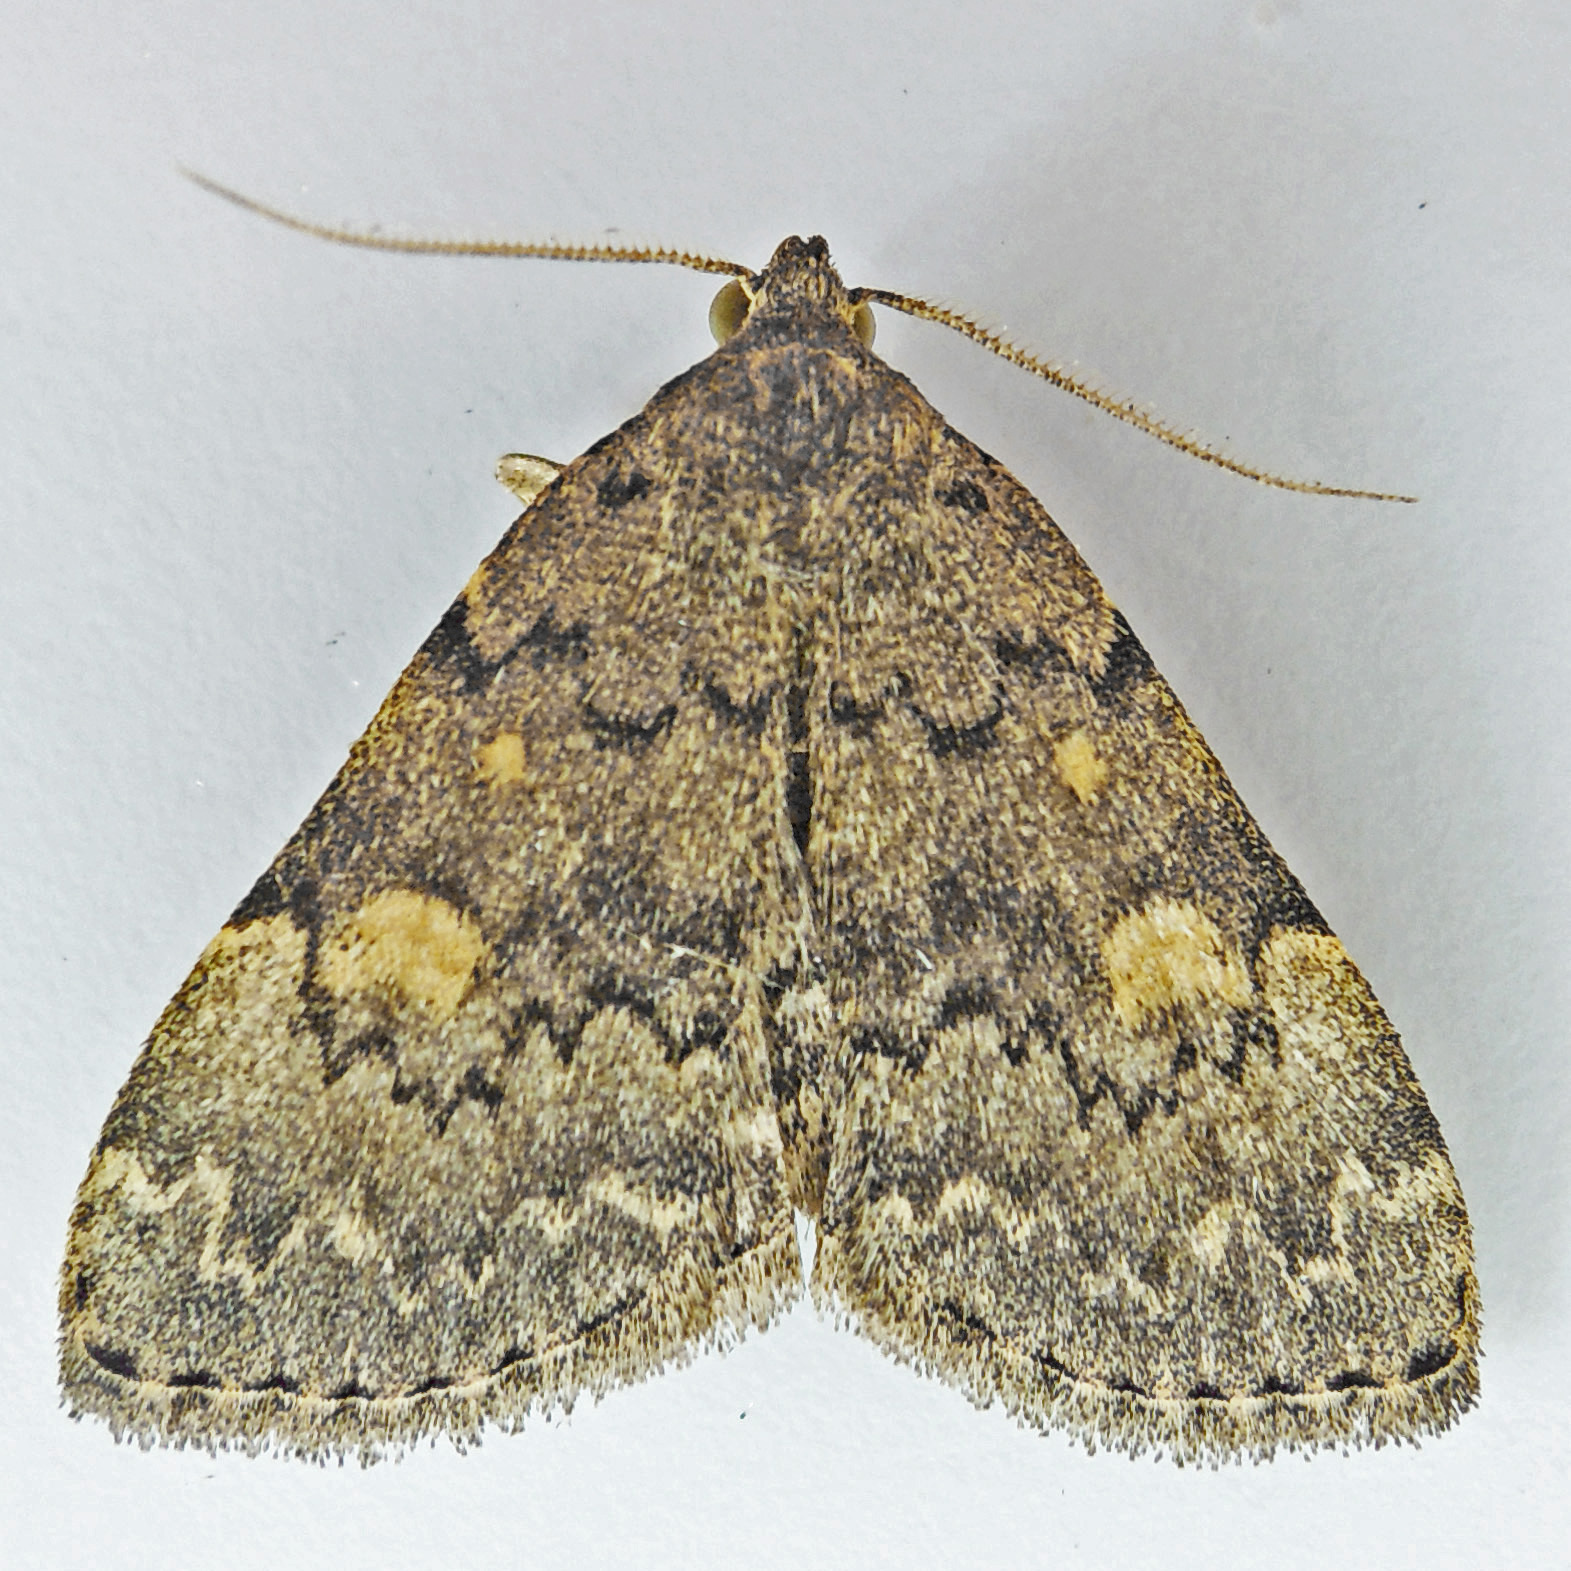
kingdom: Animalia
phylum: Arthropoda
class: Insecta
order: Lepidoptera
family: Erebidae
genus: Idia
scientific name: Idia aemula
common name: Common idia moth
